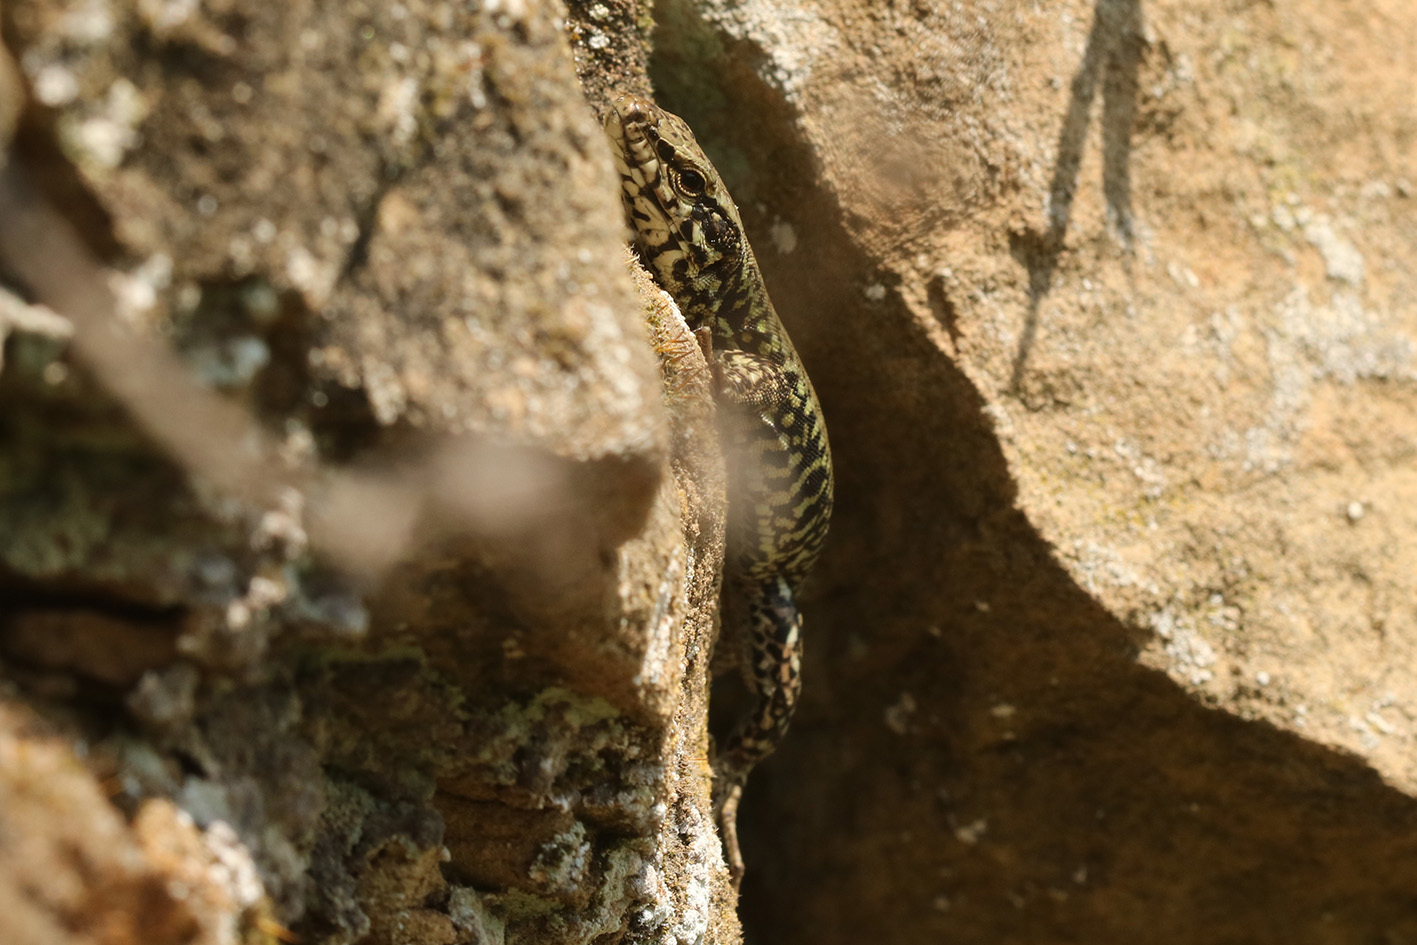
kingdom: Animalia
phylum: Chordata
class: Squamata
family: Lacertidae
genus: Podarcis
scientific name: Podarcis muralis
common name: Common wall lizard
